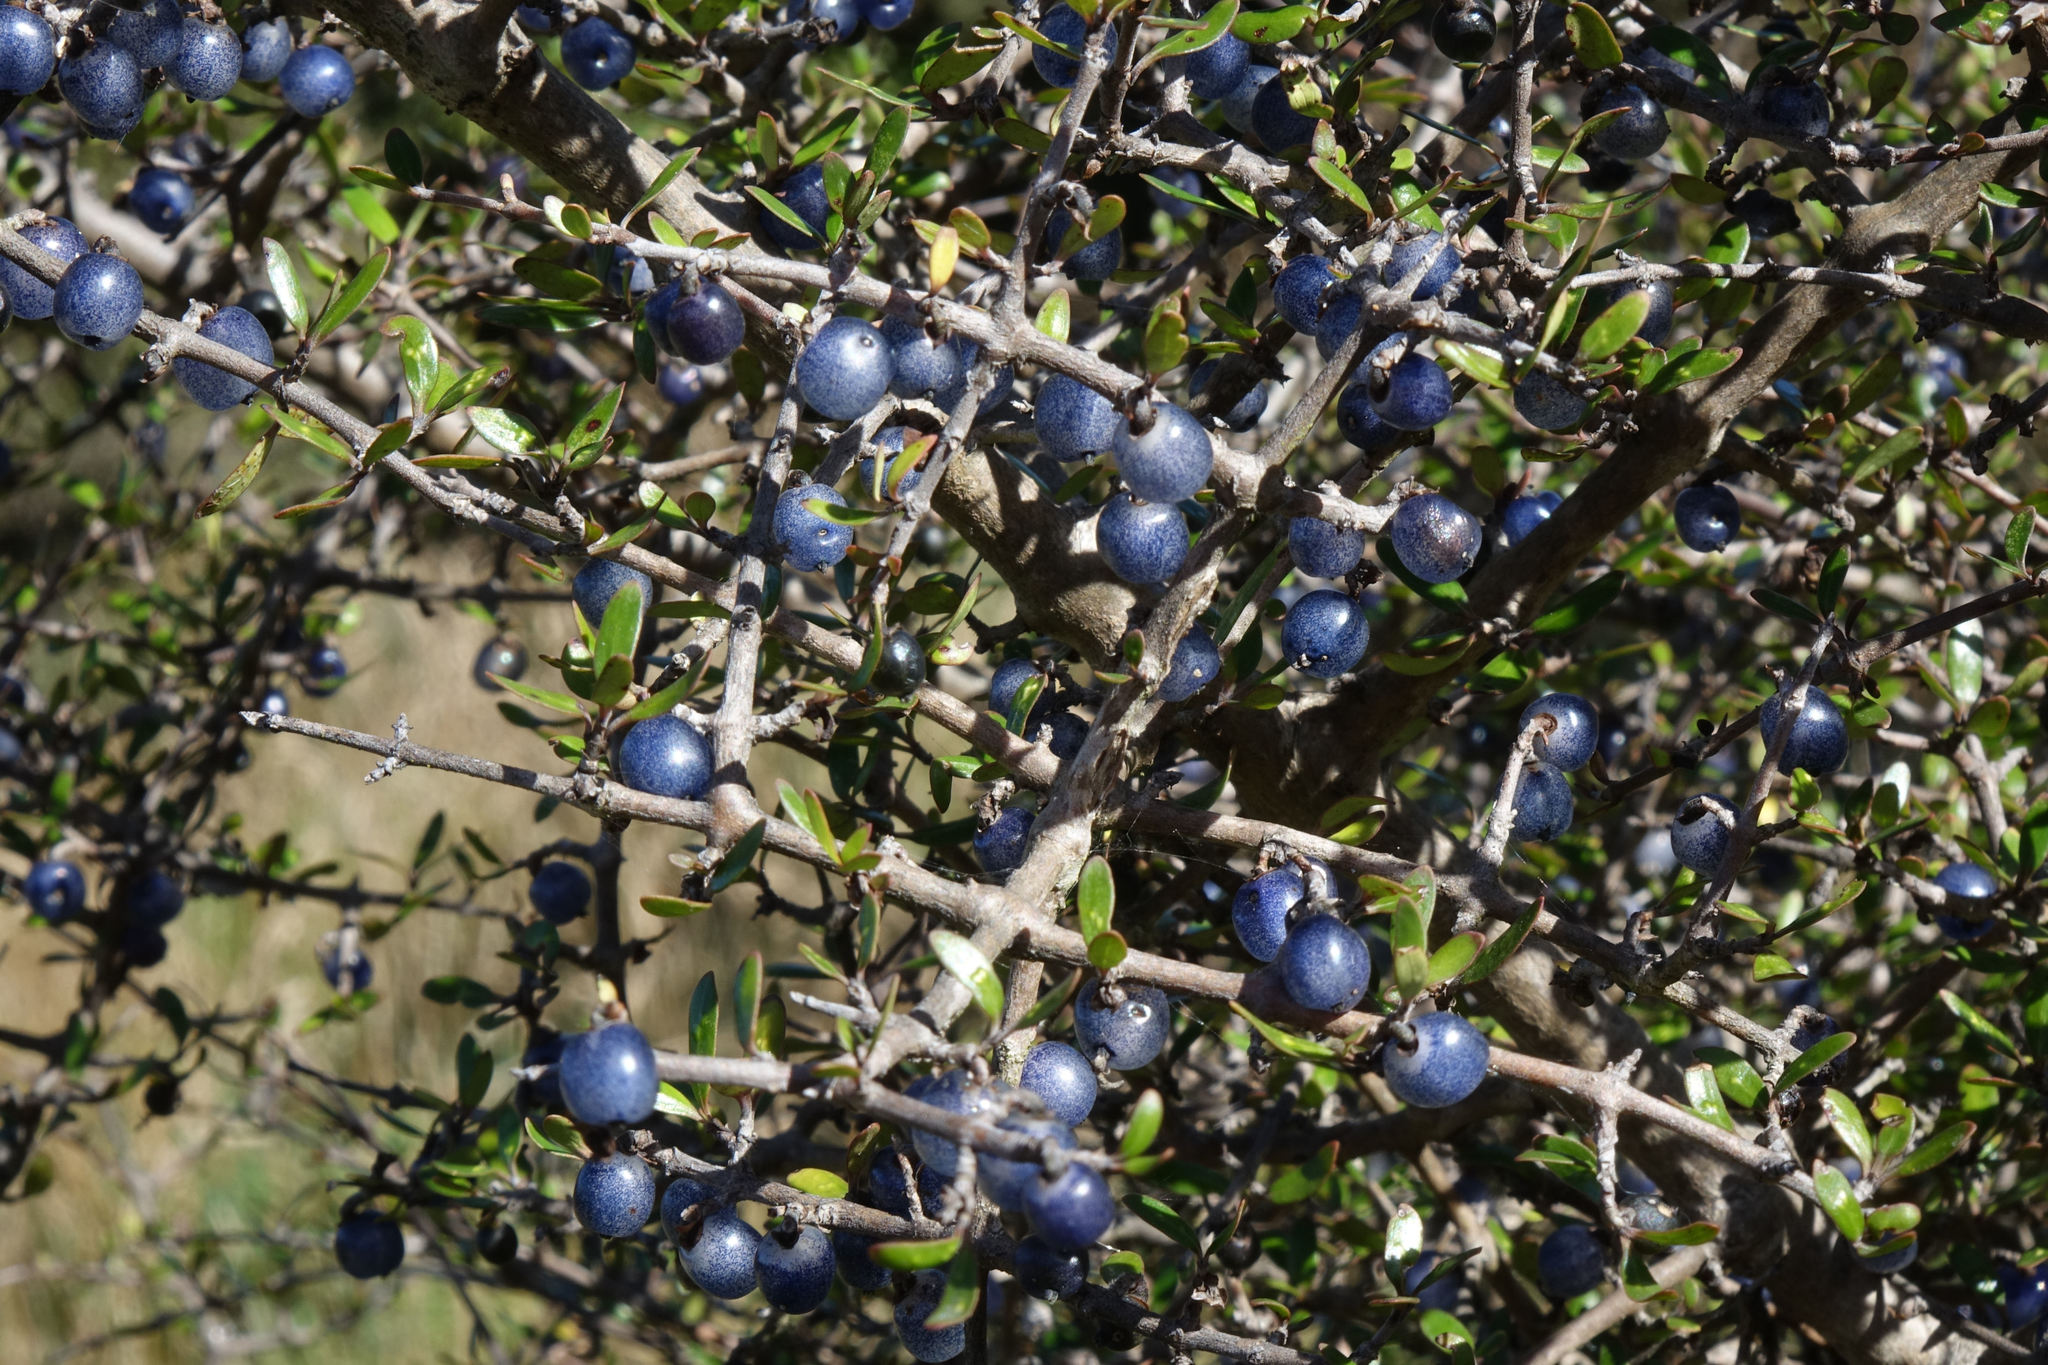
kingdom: Plantae
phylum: Tracheophyta
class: Magnoliopsida
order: Gentianales
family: Rubiaceae
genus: Coprosma
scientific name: Coprosma propinqua
